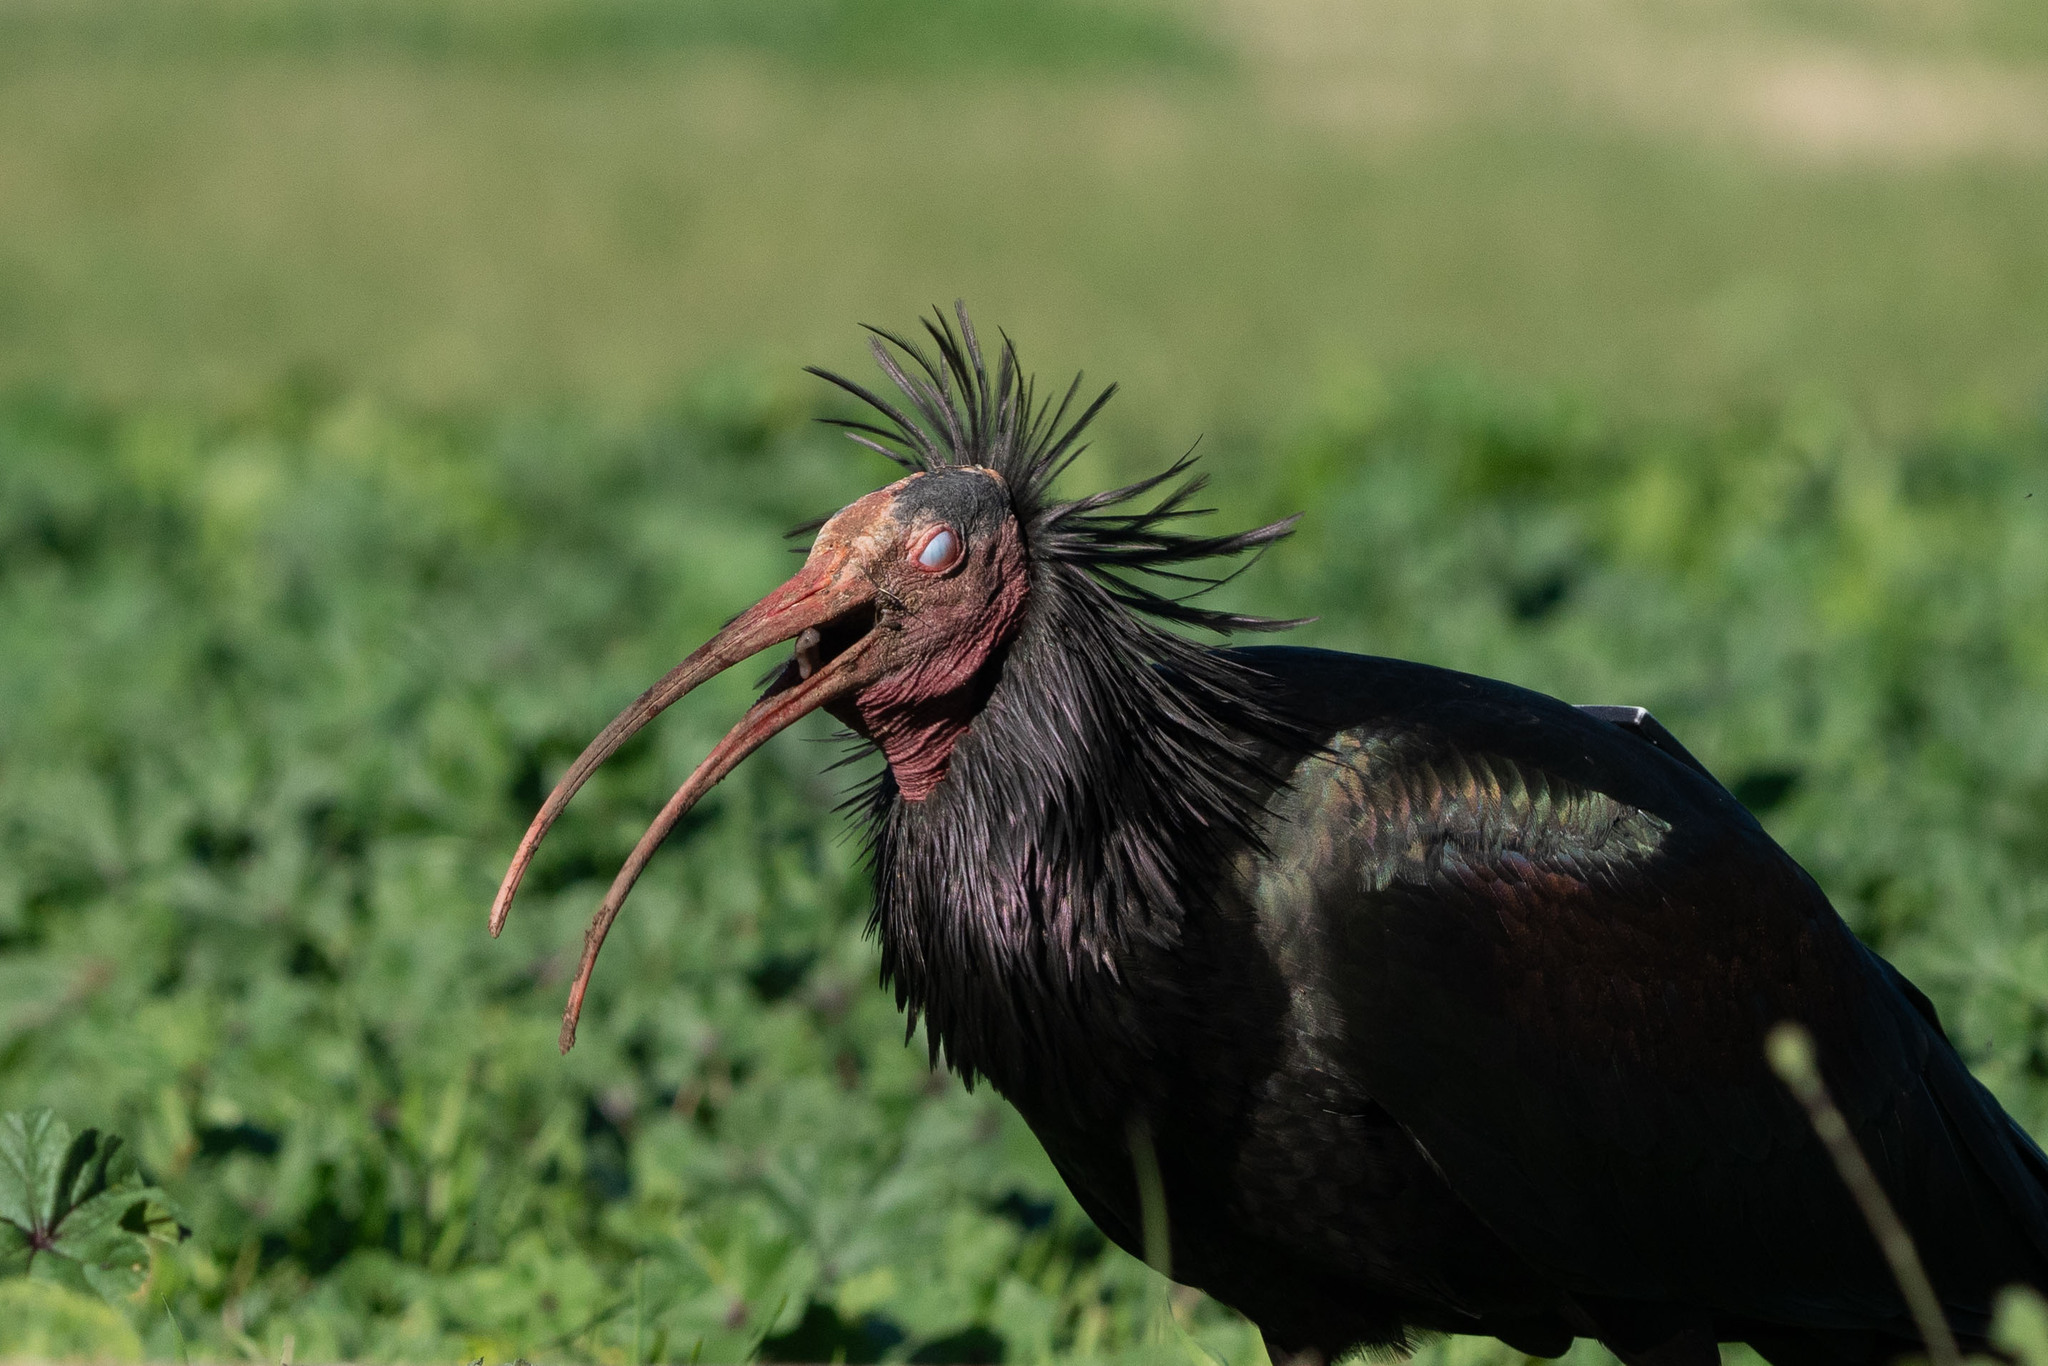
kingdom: Animalia
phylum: Chordata
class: Aves
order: Pelecaniformes
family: Threskiornithidae
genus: Geronticus
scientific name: Geronticus eremita
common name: Northern bald ibis
